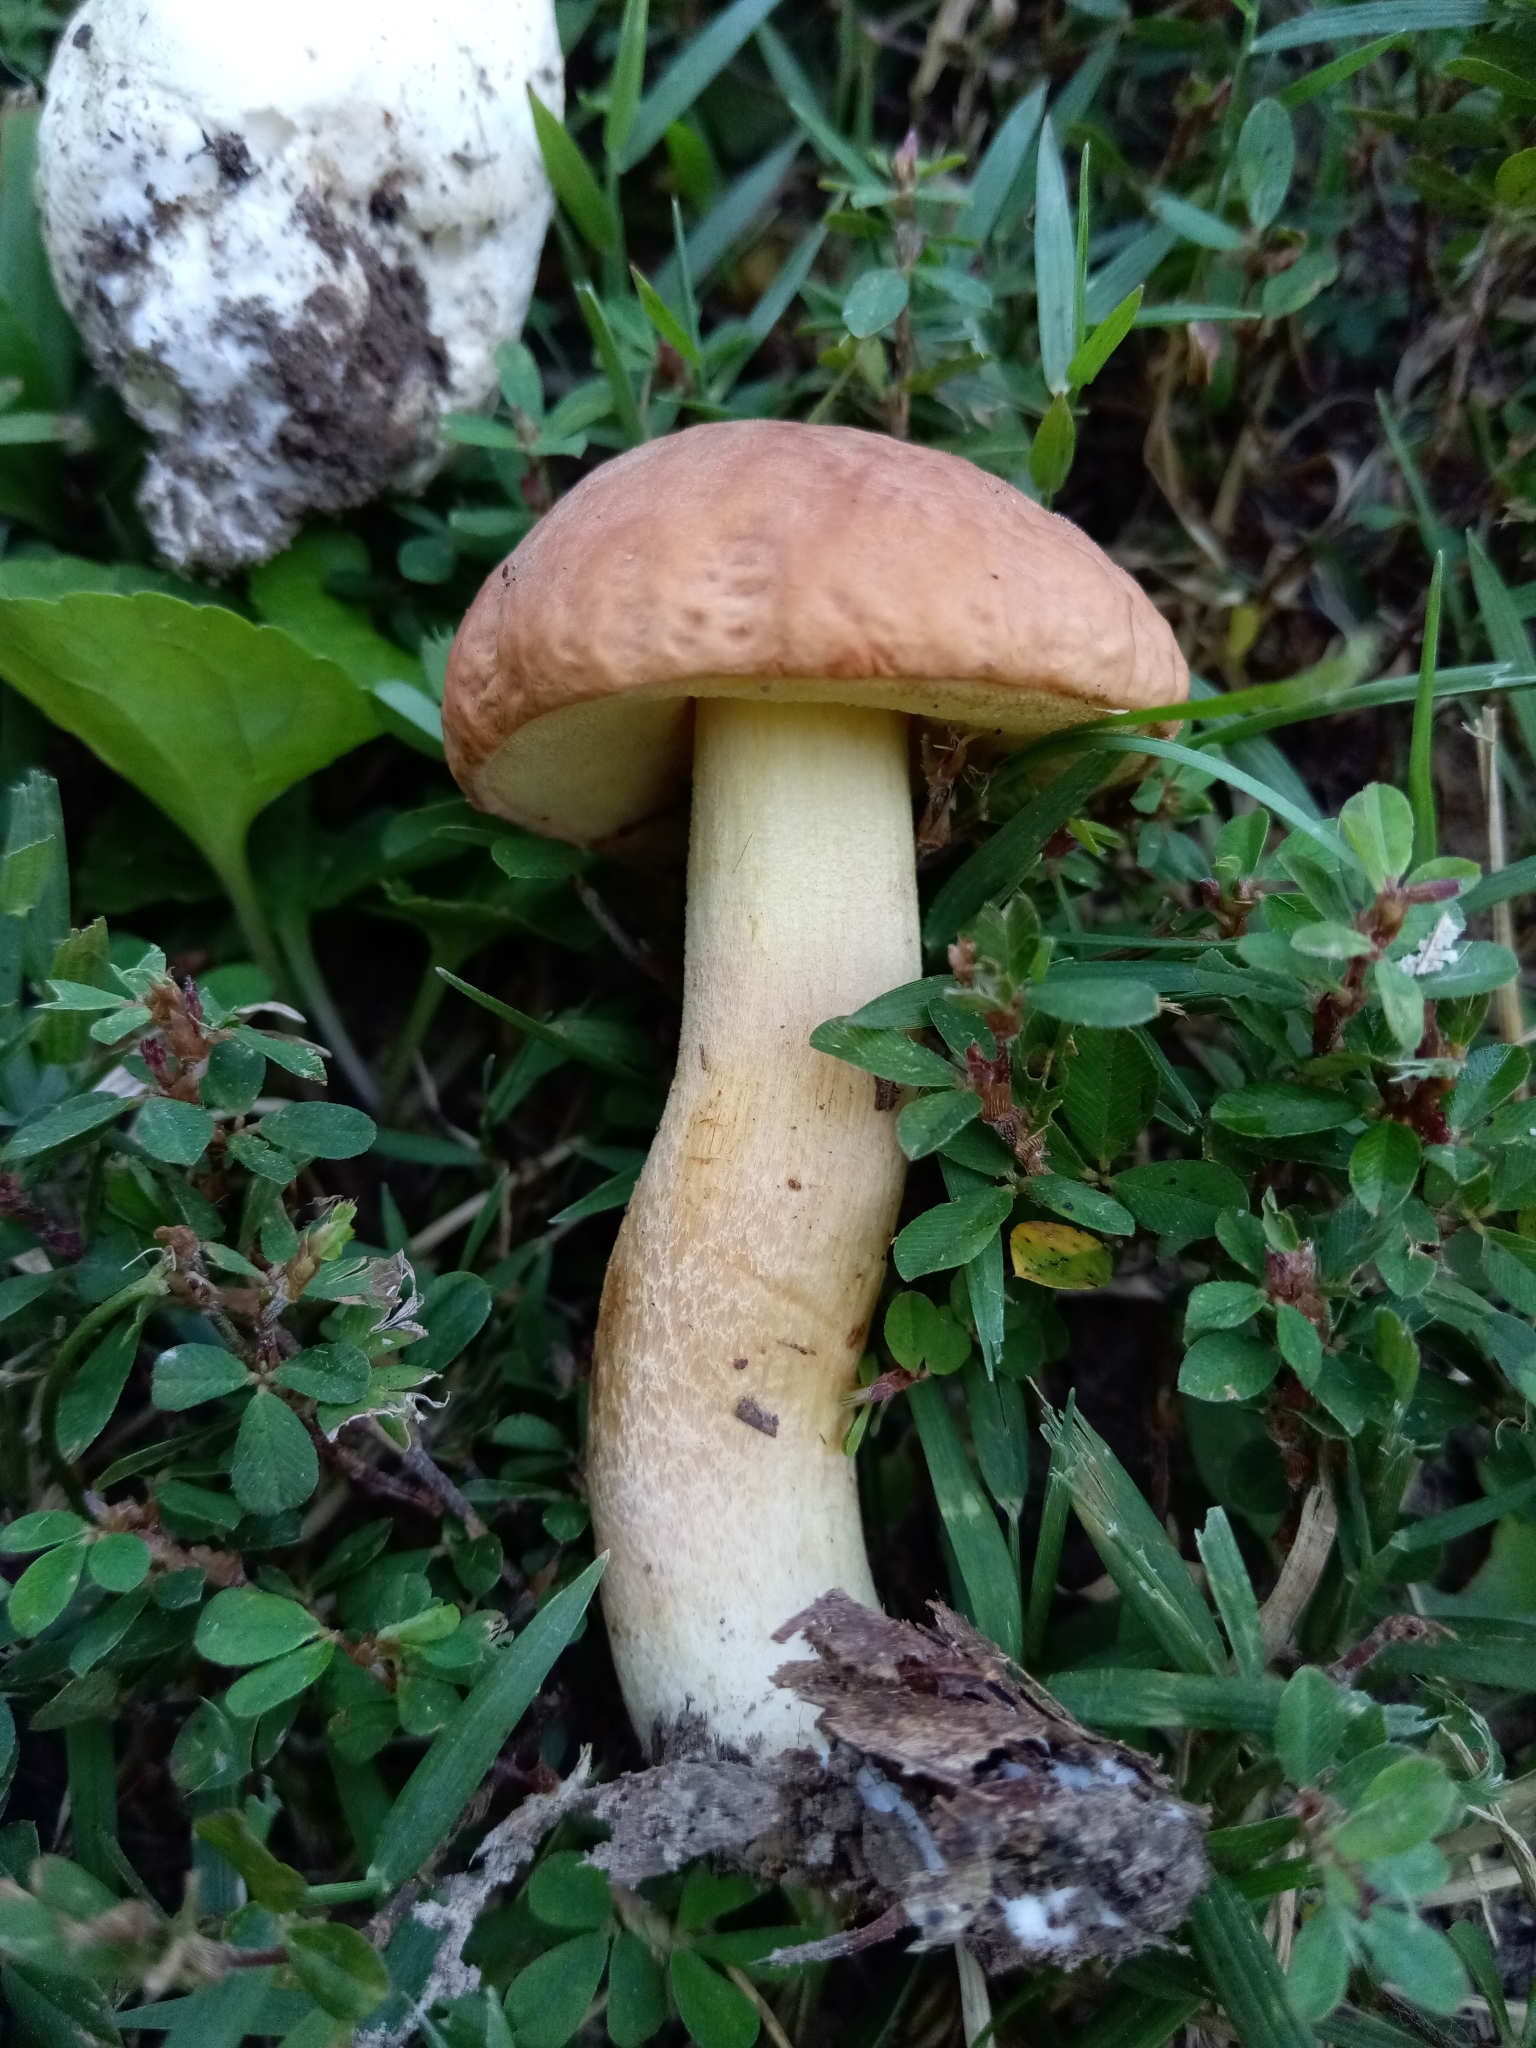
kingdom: Fungi
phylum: Basidiomycota
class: Agaricomycetes
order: Boletales
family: Boletaceae
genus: Hemileccinum
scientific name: Hemileccinum hortonii
